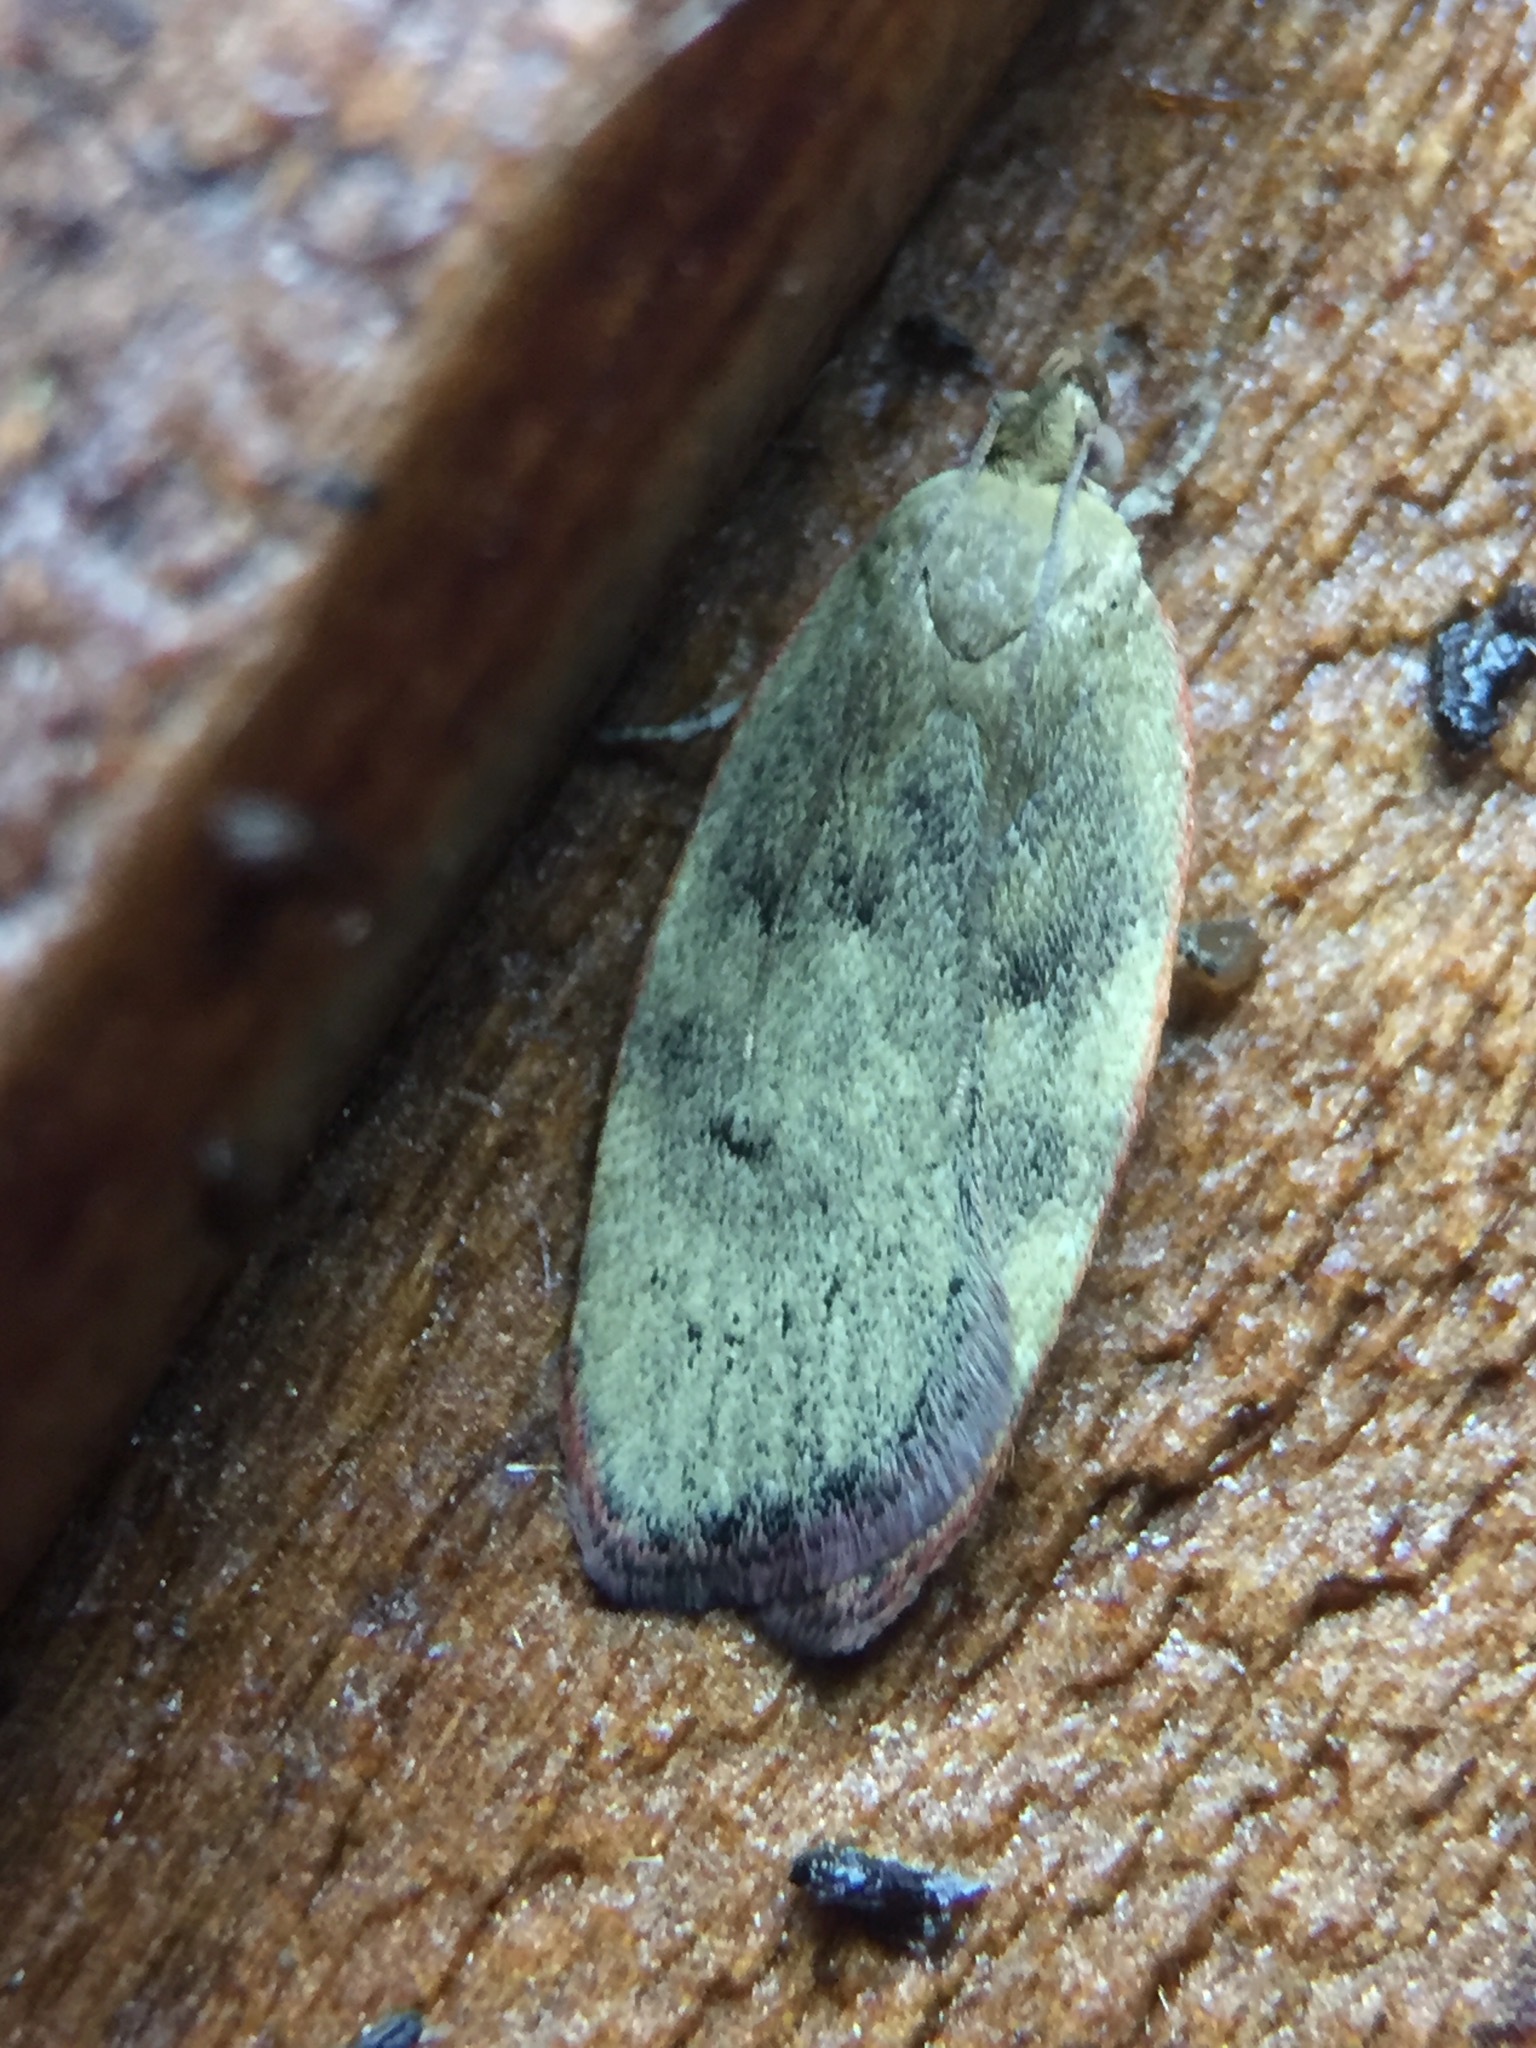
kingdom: Animalia
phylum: Arthropoda
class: Insecta
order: Lepidoptera
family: Depressariidae
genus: Phaeosaces
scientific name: Phaeosaces coarctatella
